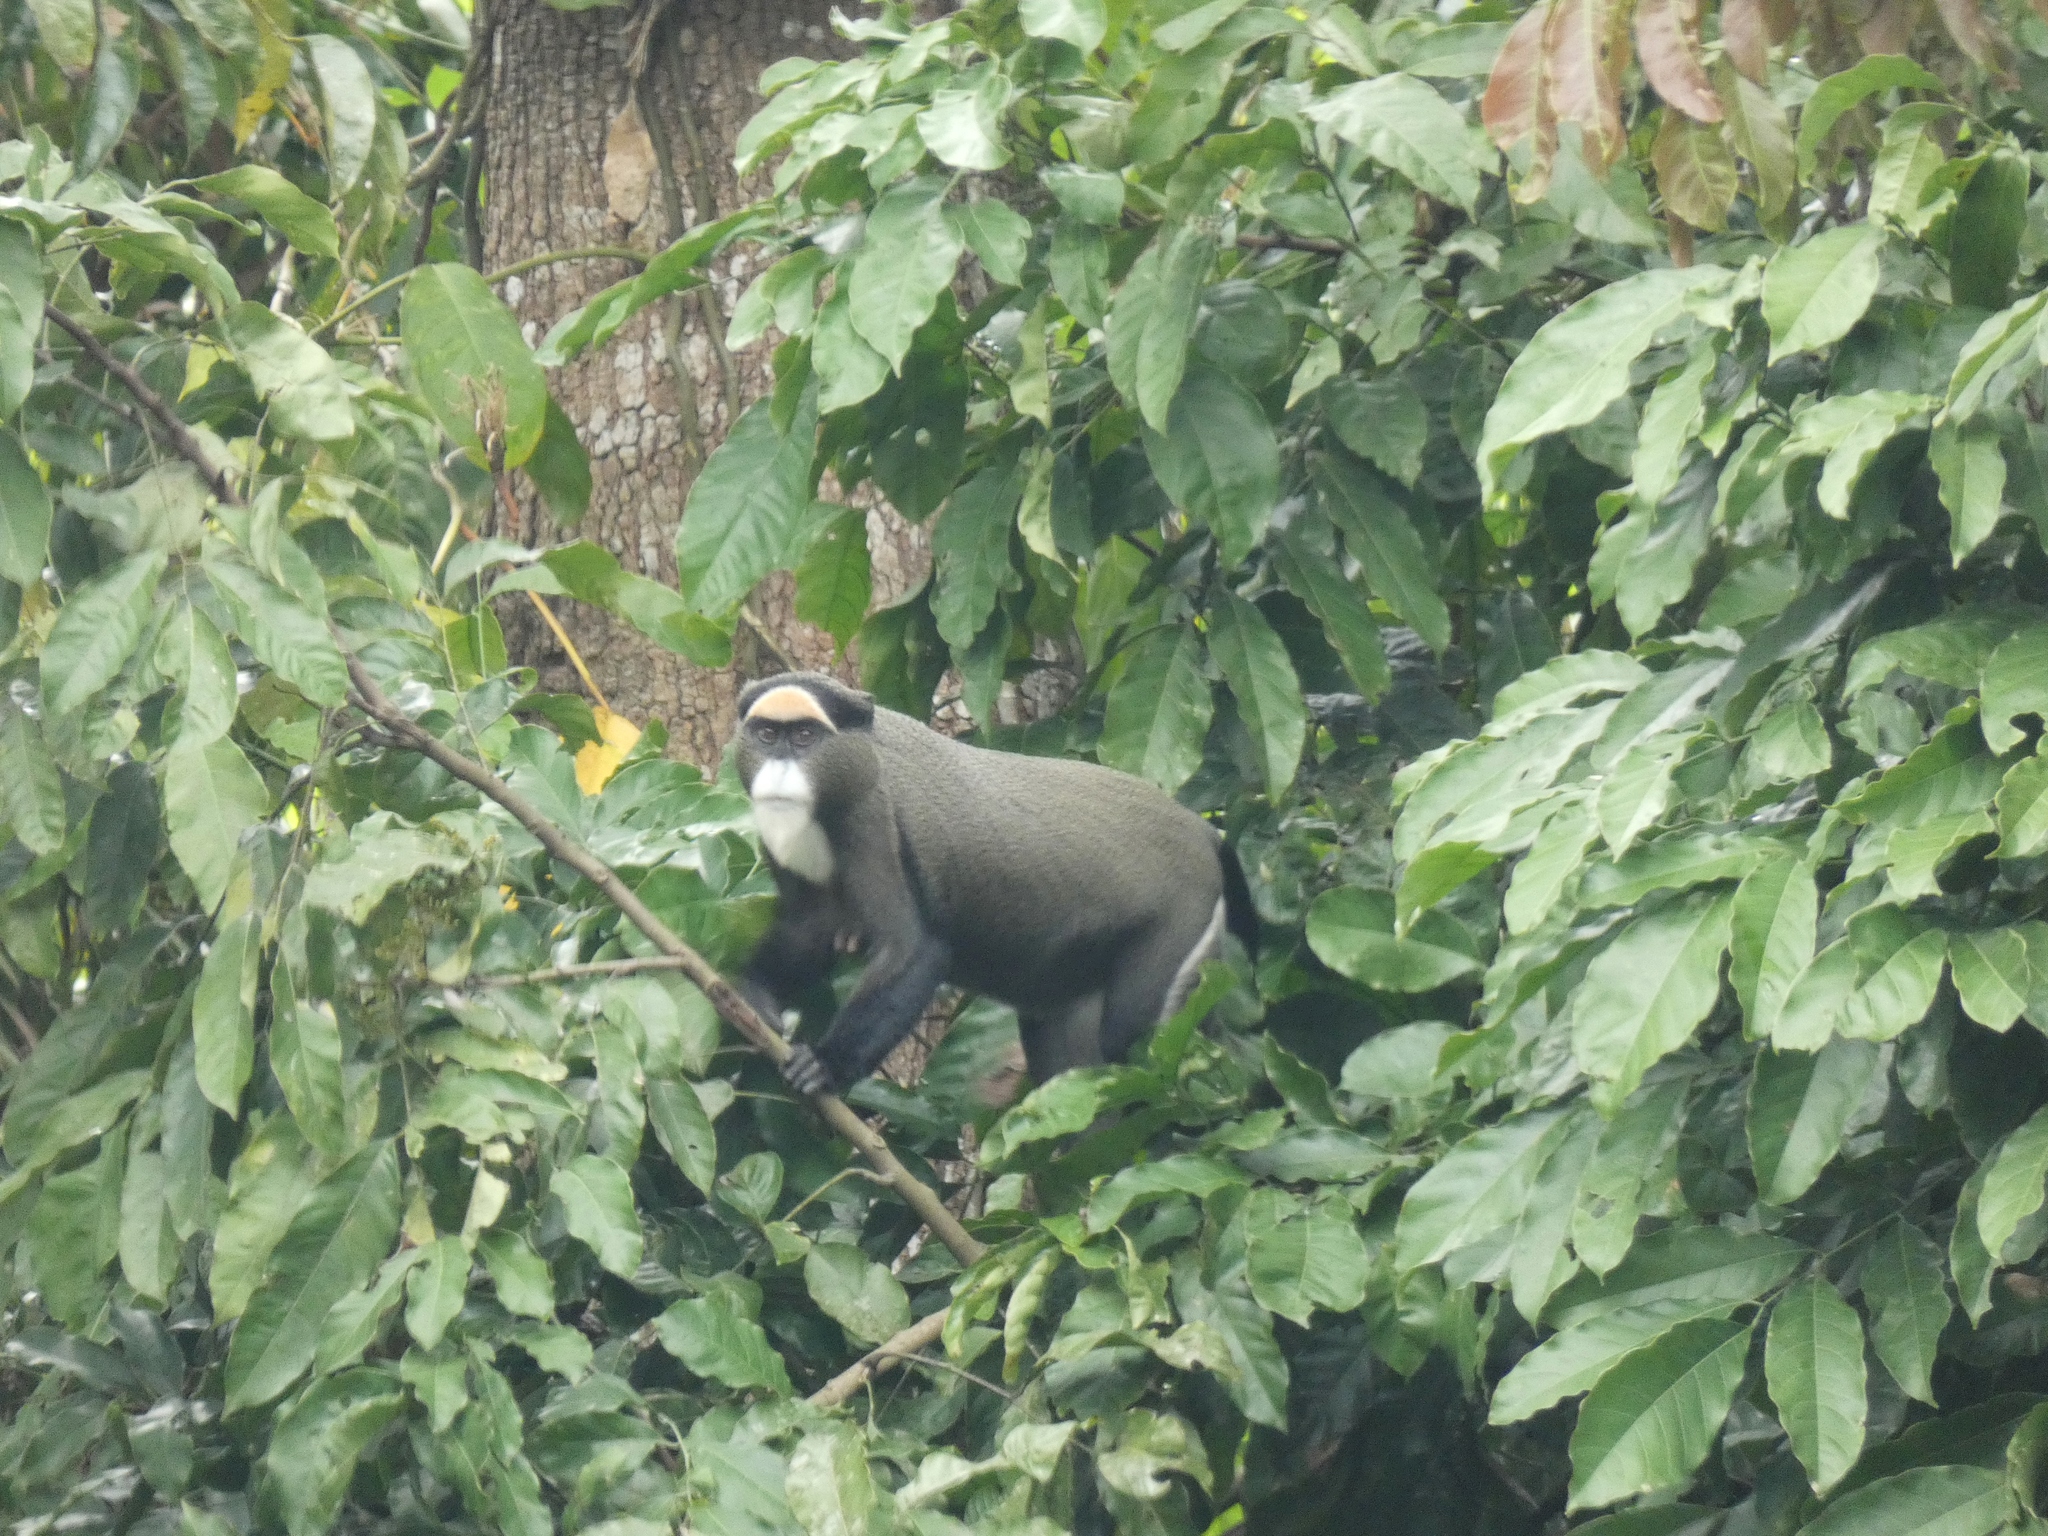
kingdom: Animalia
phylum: Chordata
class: Mammalia
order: Primates
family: Cercopithecidae
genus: Cercopithecus
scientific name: Cercopithecus neglectus
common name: De brazza's guenon
